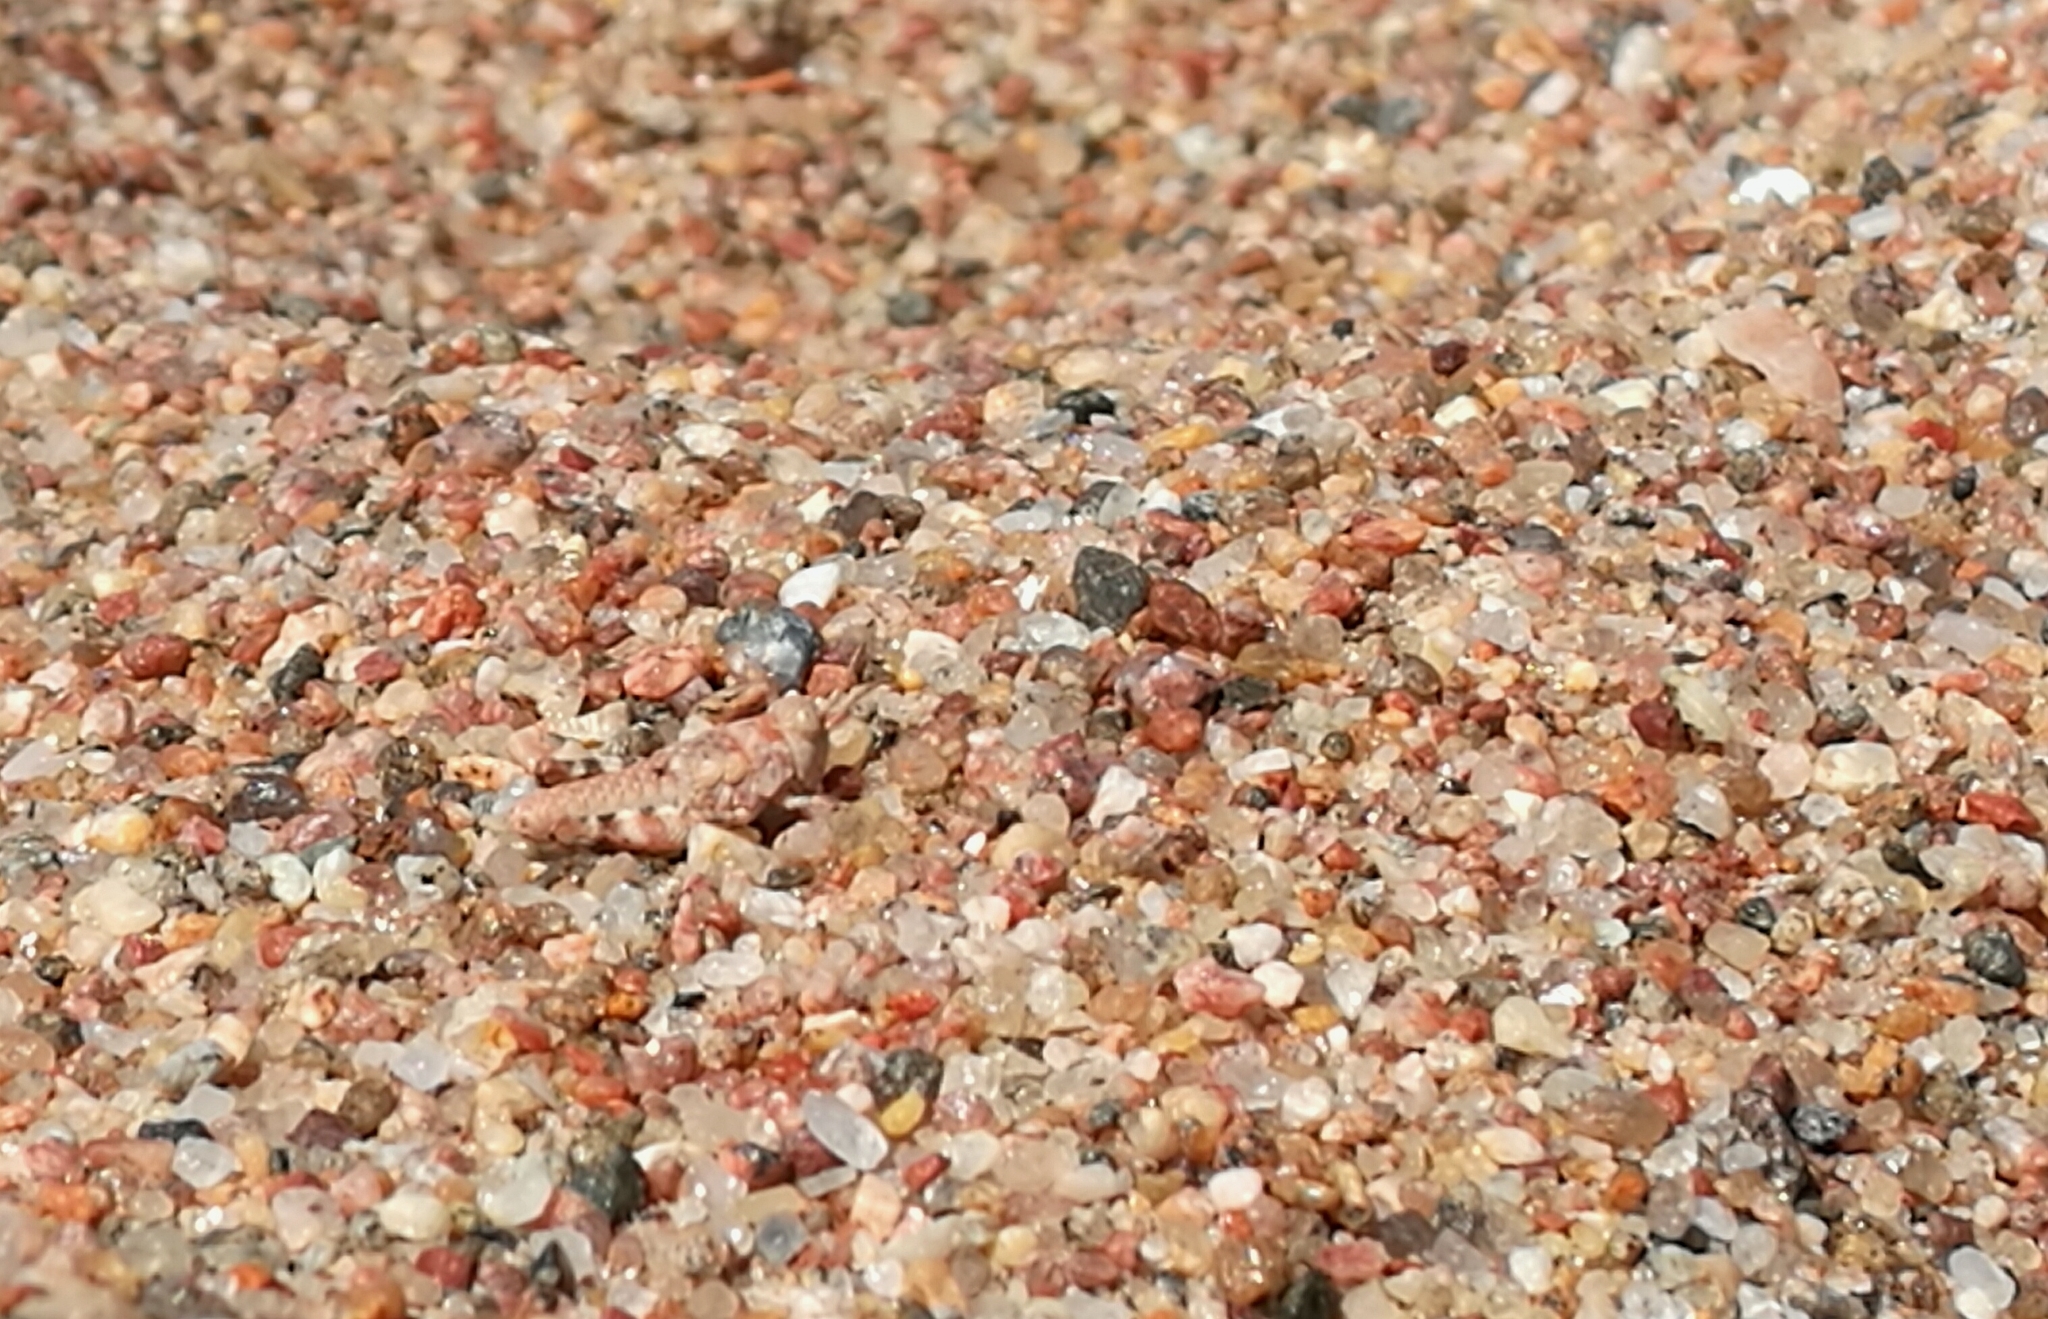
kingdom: Animalia
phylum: Arthropoda
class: Insecta
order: Orthoptera
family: Acrididae
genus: Sphingonotus
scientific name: Sphingonotus caerulans
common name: Blue-winged locust
